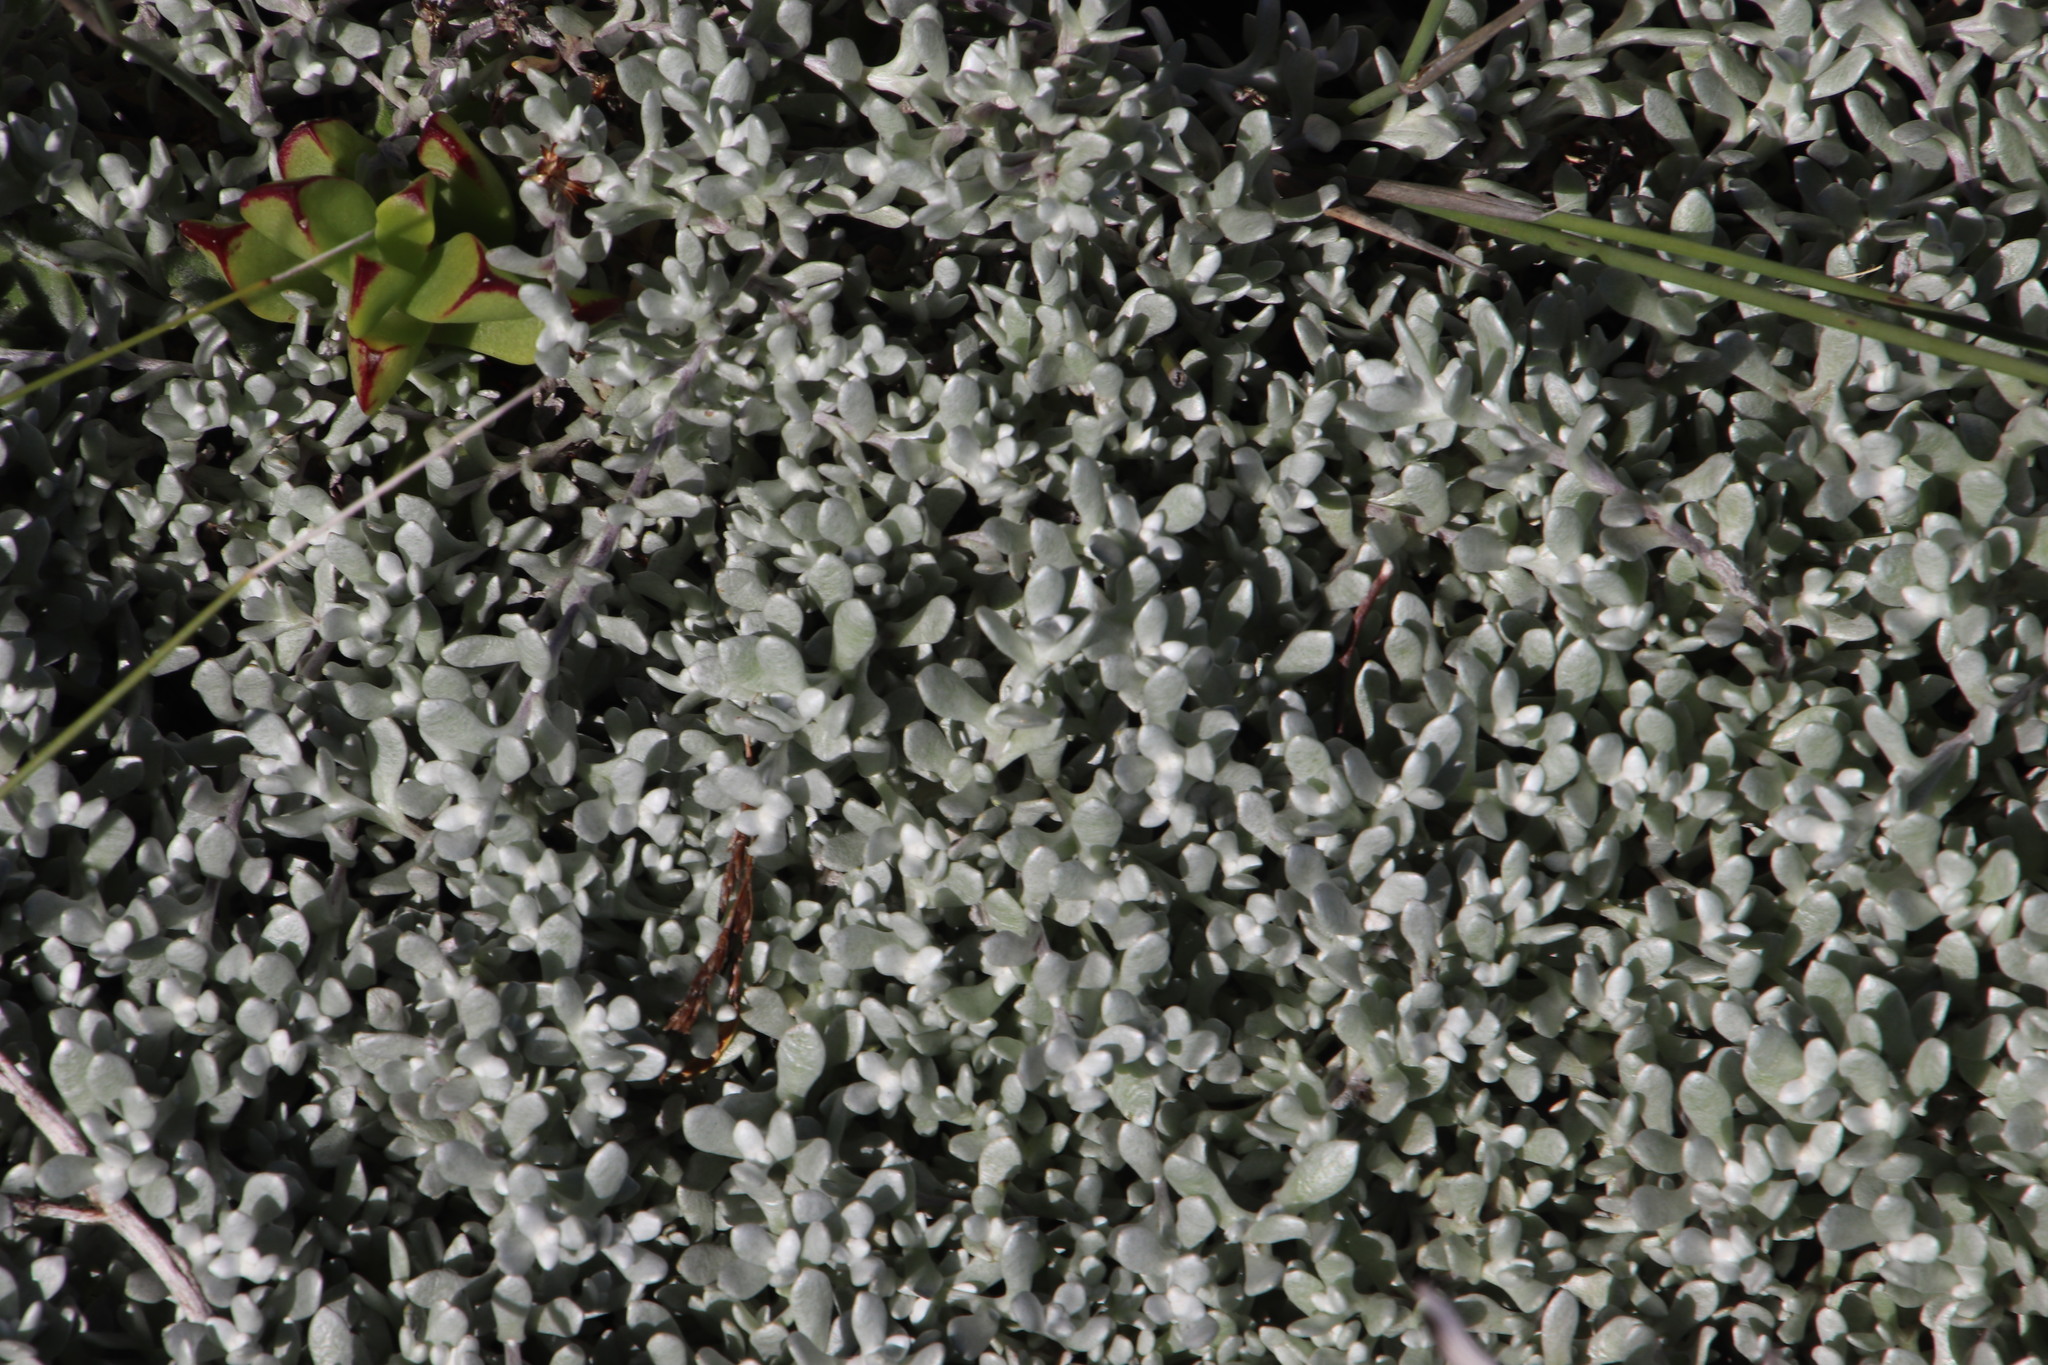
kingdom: Plantae
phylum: Tracheophyta
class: Magnoliopsida
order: Asterales
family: Asteraceae
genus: Helichrysum
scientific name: Helichrysum patulum
